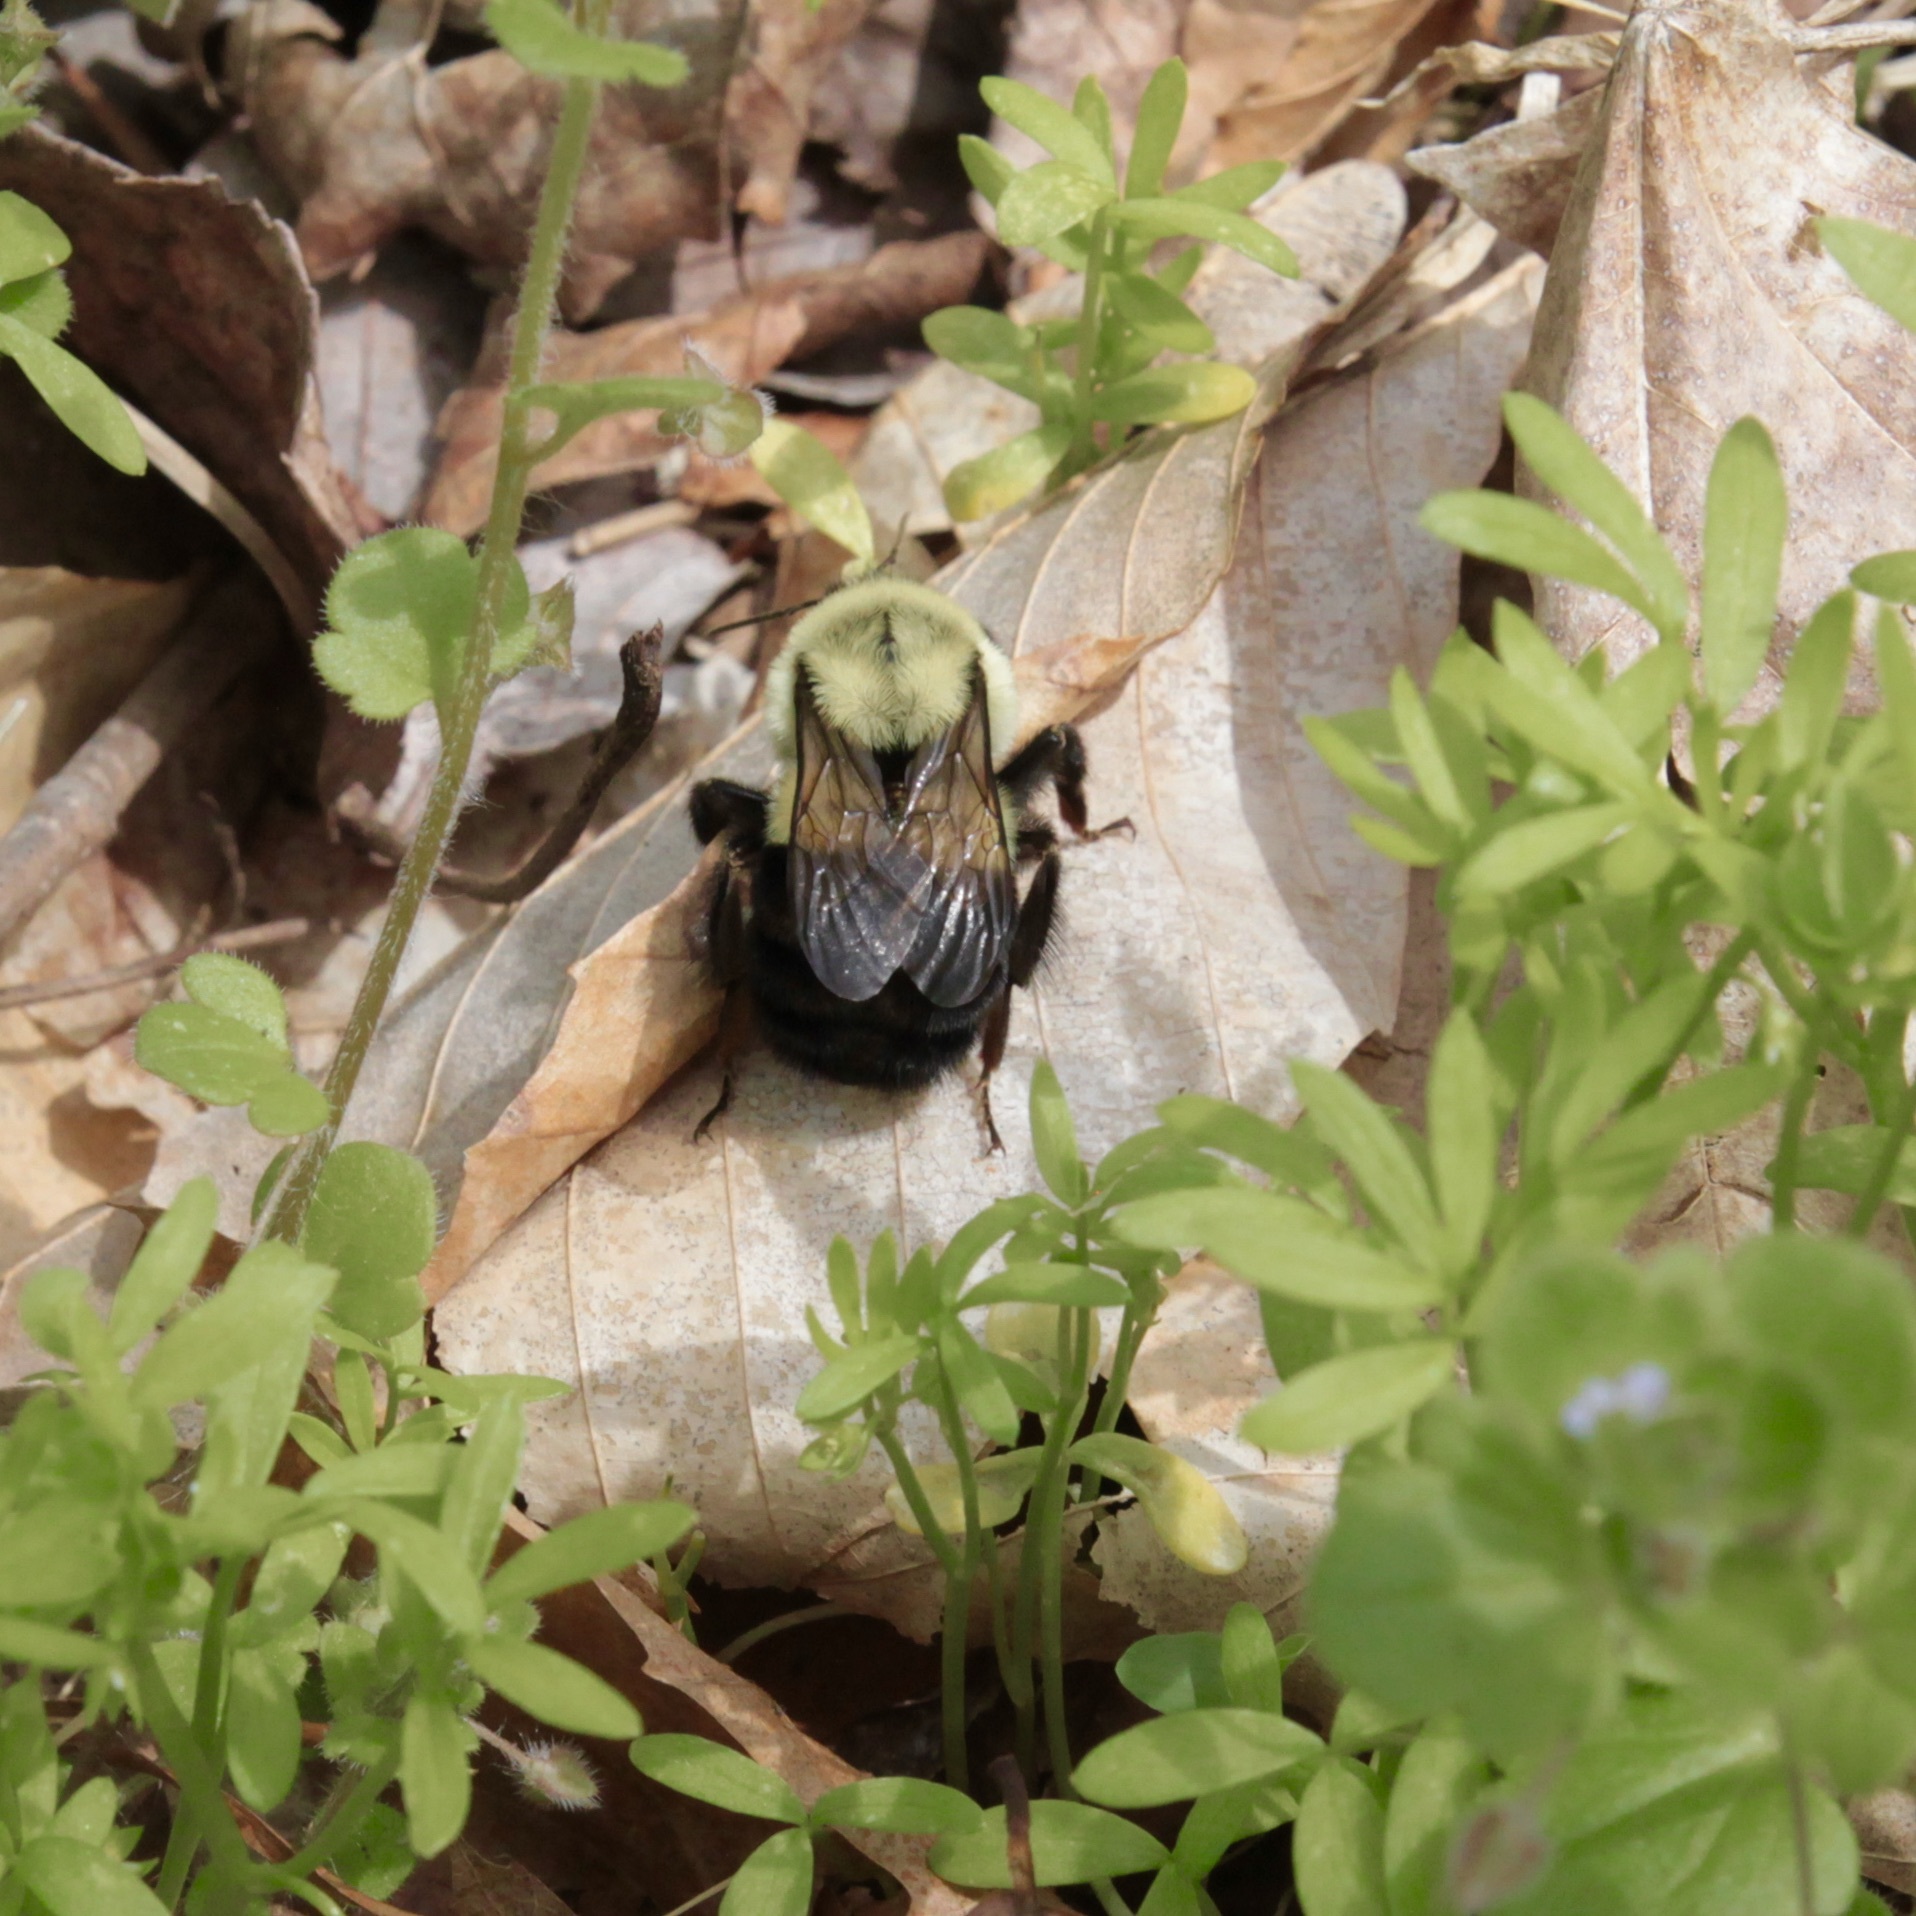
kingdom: Animalia
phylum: Arthropoda
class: Insecta
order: Hymenoptera
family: Apidae
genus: Bombus
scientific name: Bombus impatiens
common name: Common eastern bumble bee
